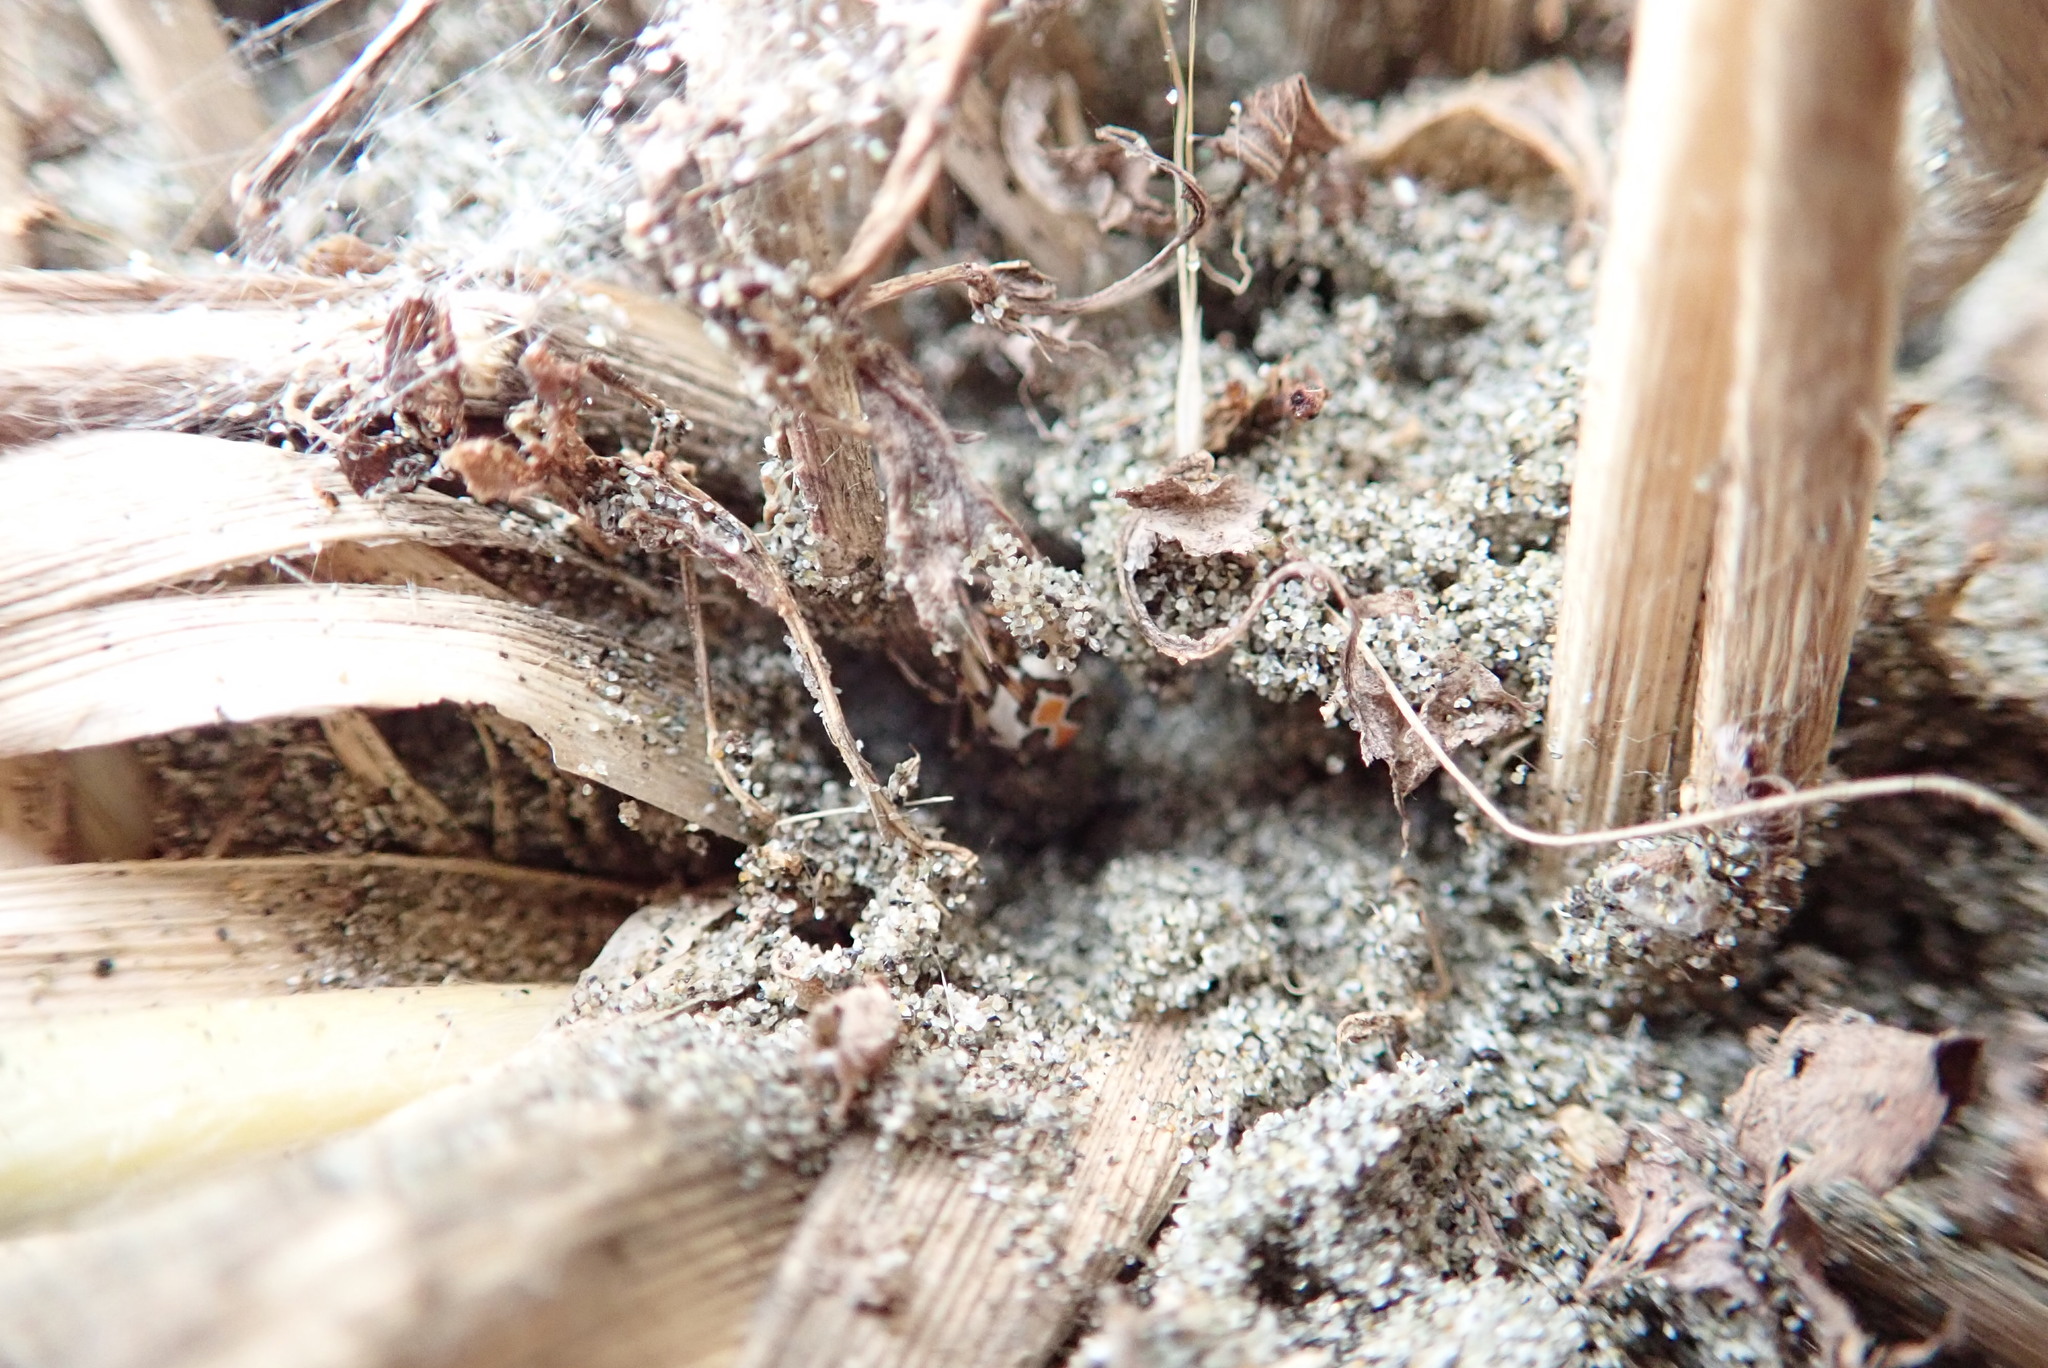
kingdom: Animalia
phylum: Arthropoda
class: Arachnida
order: Araneae
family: Theridiidae
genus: Latrodectus
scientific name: Latrodectus katipo
